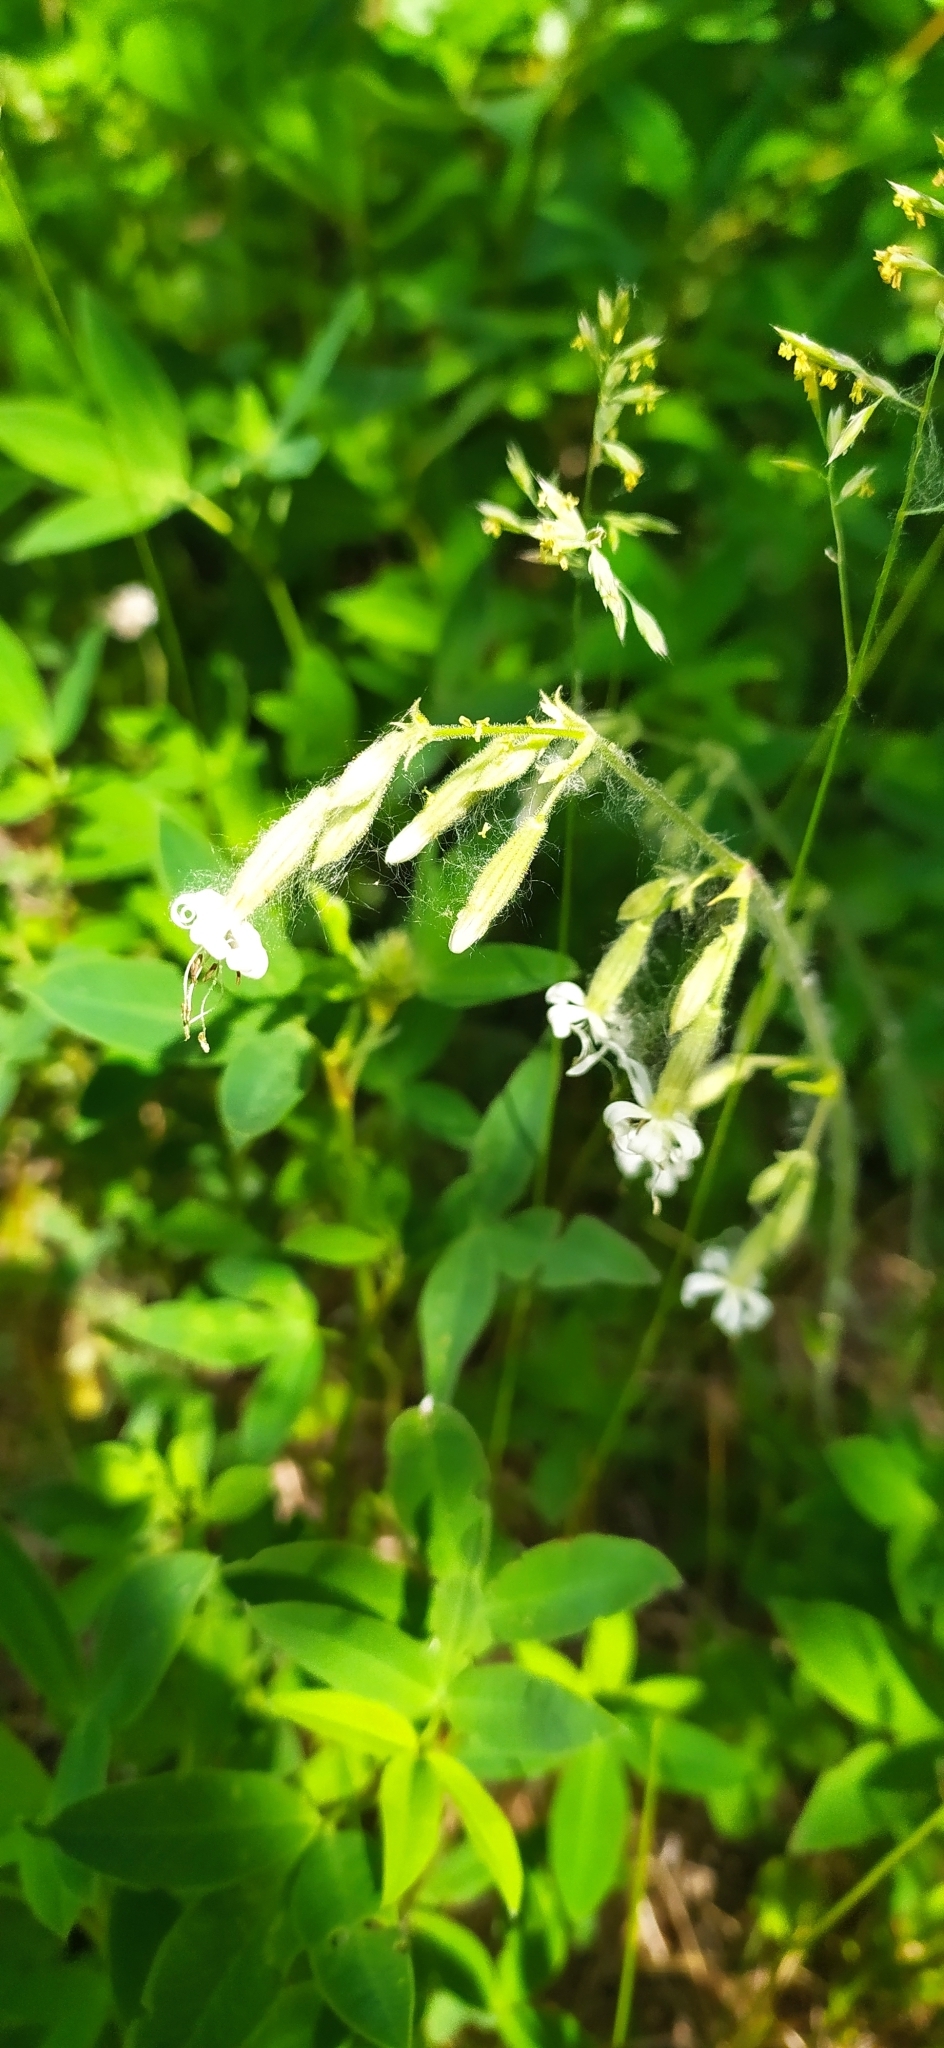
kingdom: Plantae
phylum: Tracheophyta
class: Magnoliopsida
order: Caryophyllales
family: Caryophyllaceae
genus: Silene
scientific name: Silene nutans
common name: Nottingham catchfly
